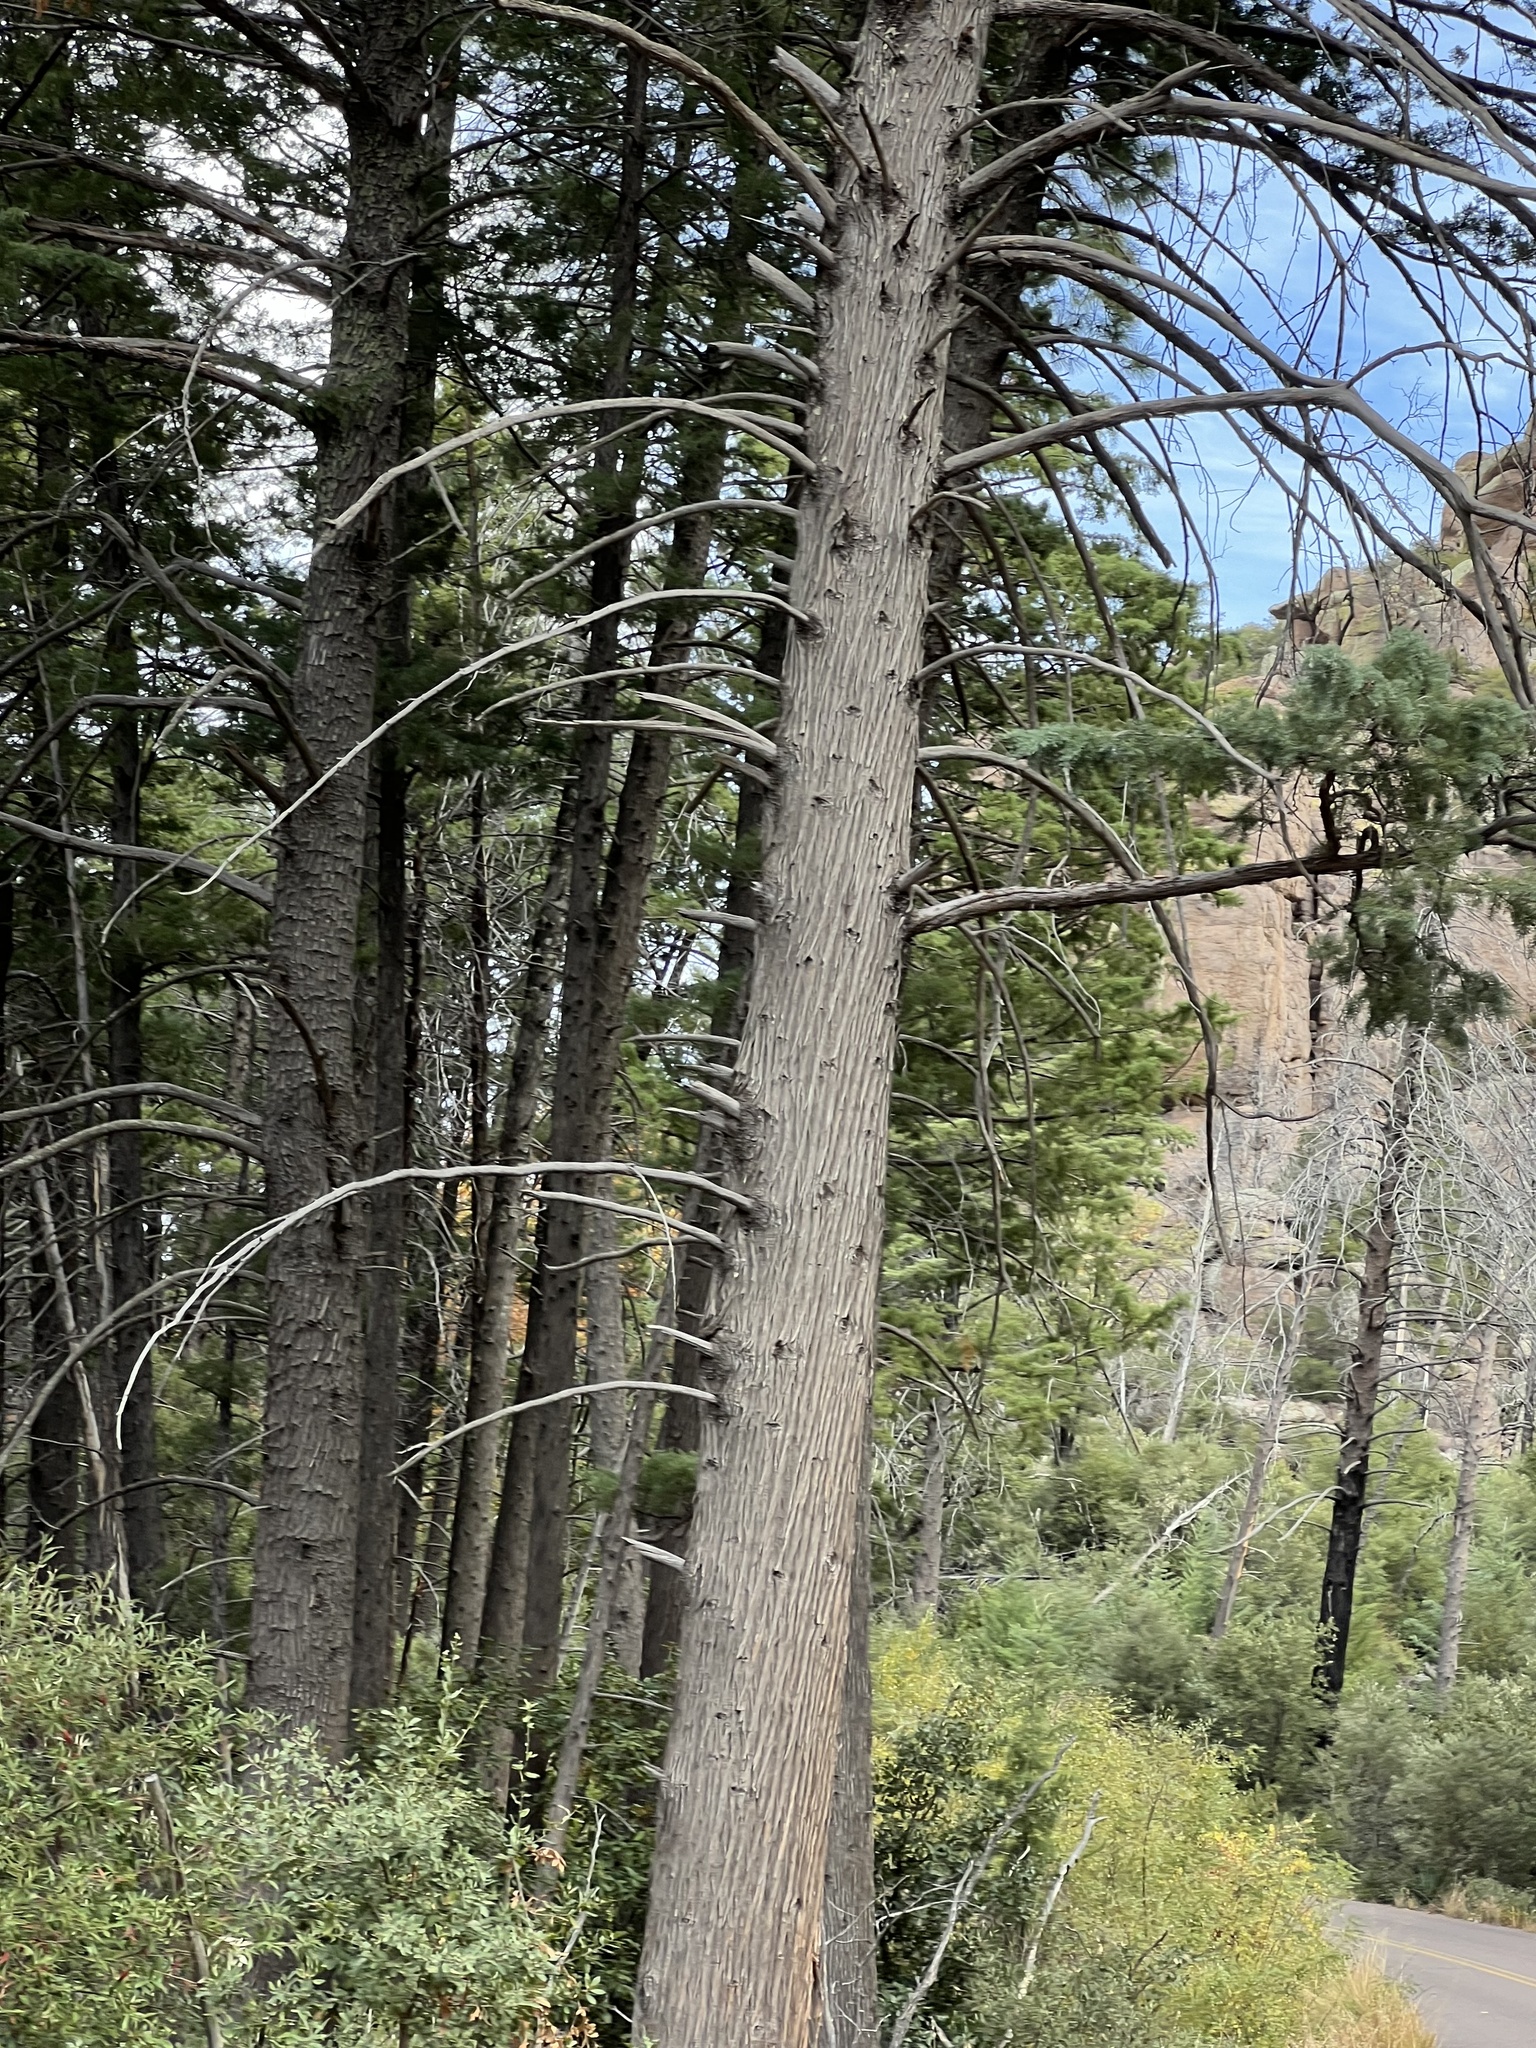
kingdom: Plantae
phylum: Tracheophyta
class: Pinopsida
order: Pinales
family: Cupressaceae
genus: Cupressus
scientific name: Cupressus arizonica
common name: Arizona cypress
